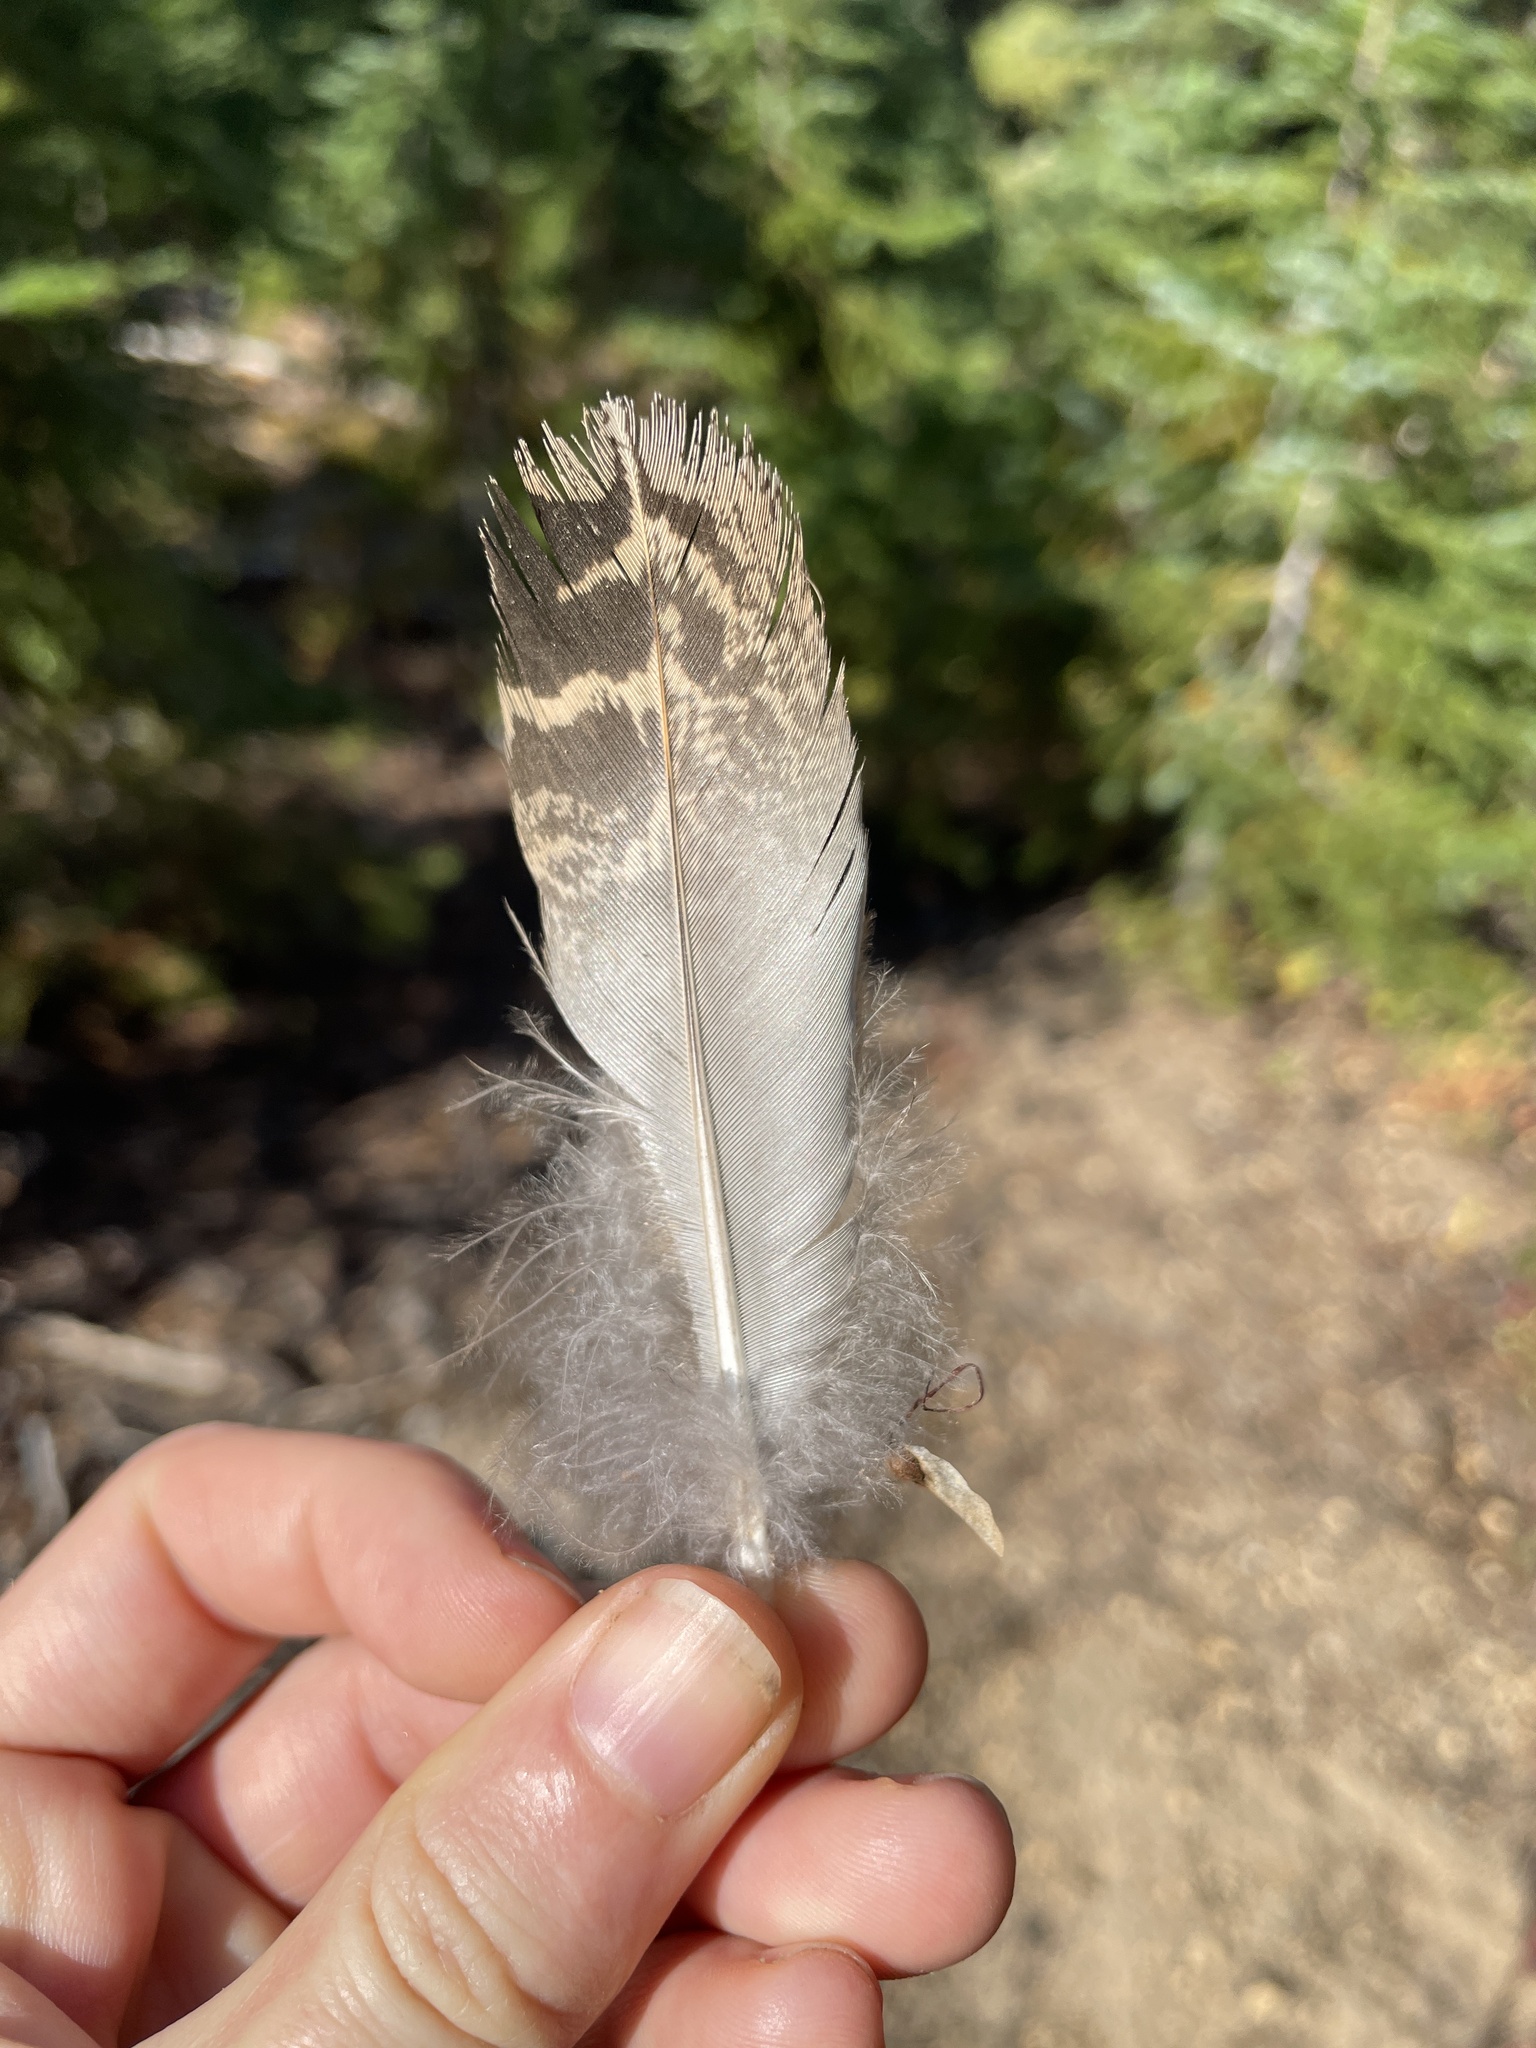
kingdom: Animalia
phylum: Chordata
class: Aves
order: Galliformes
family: Phasianidae
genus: Dendragapus
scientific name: Dendragapus fuliginosus
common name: Sooty grouse
